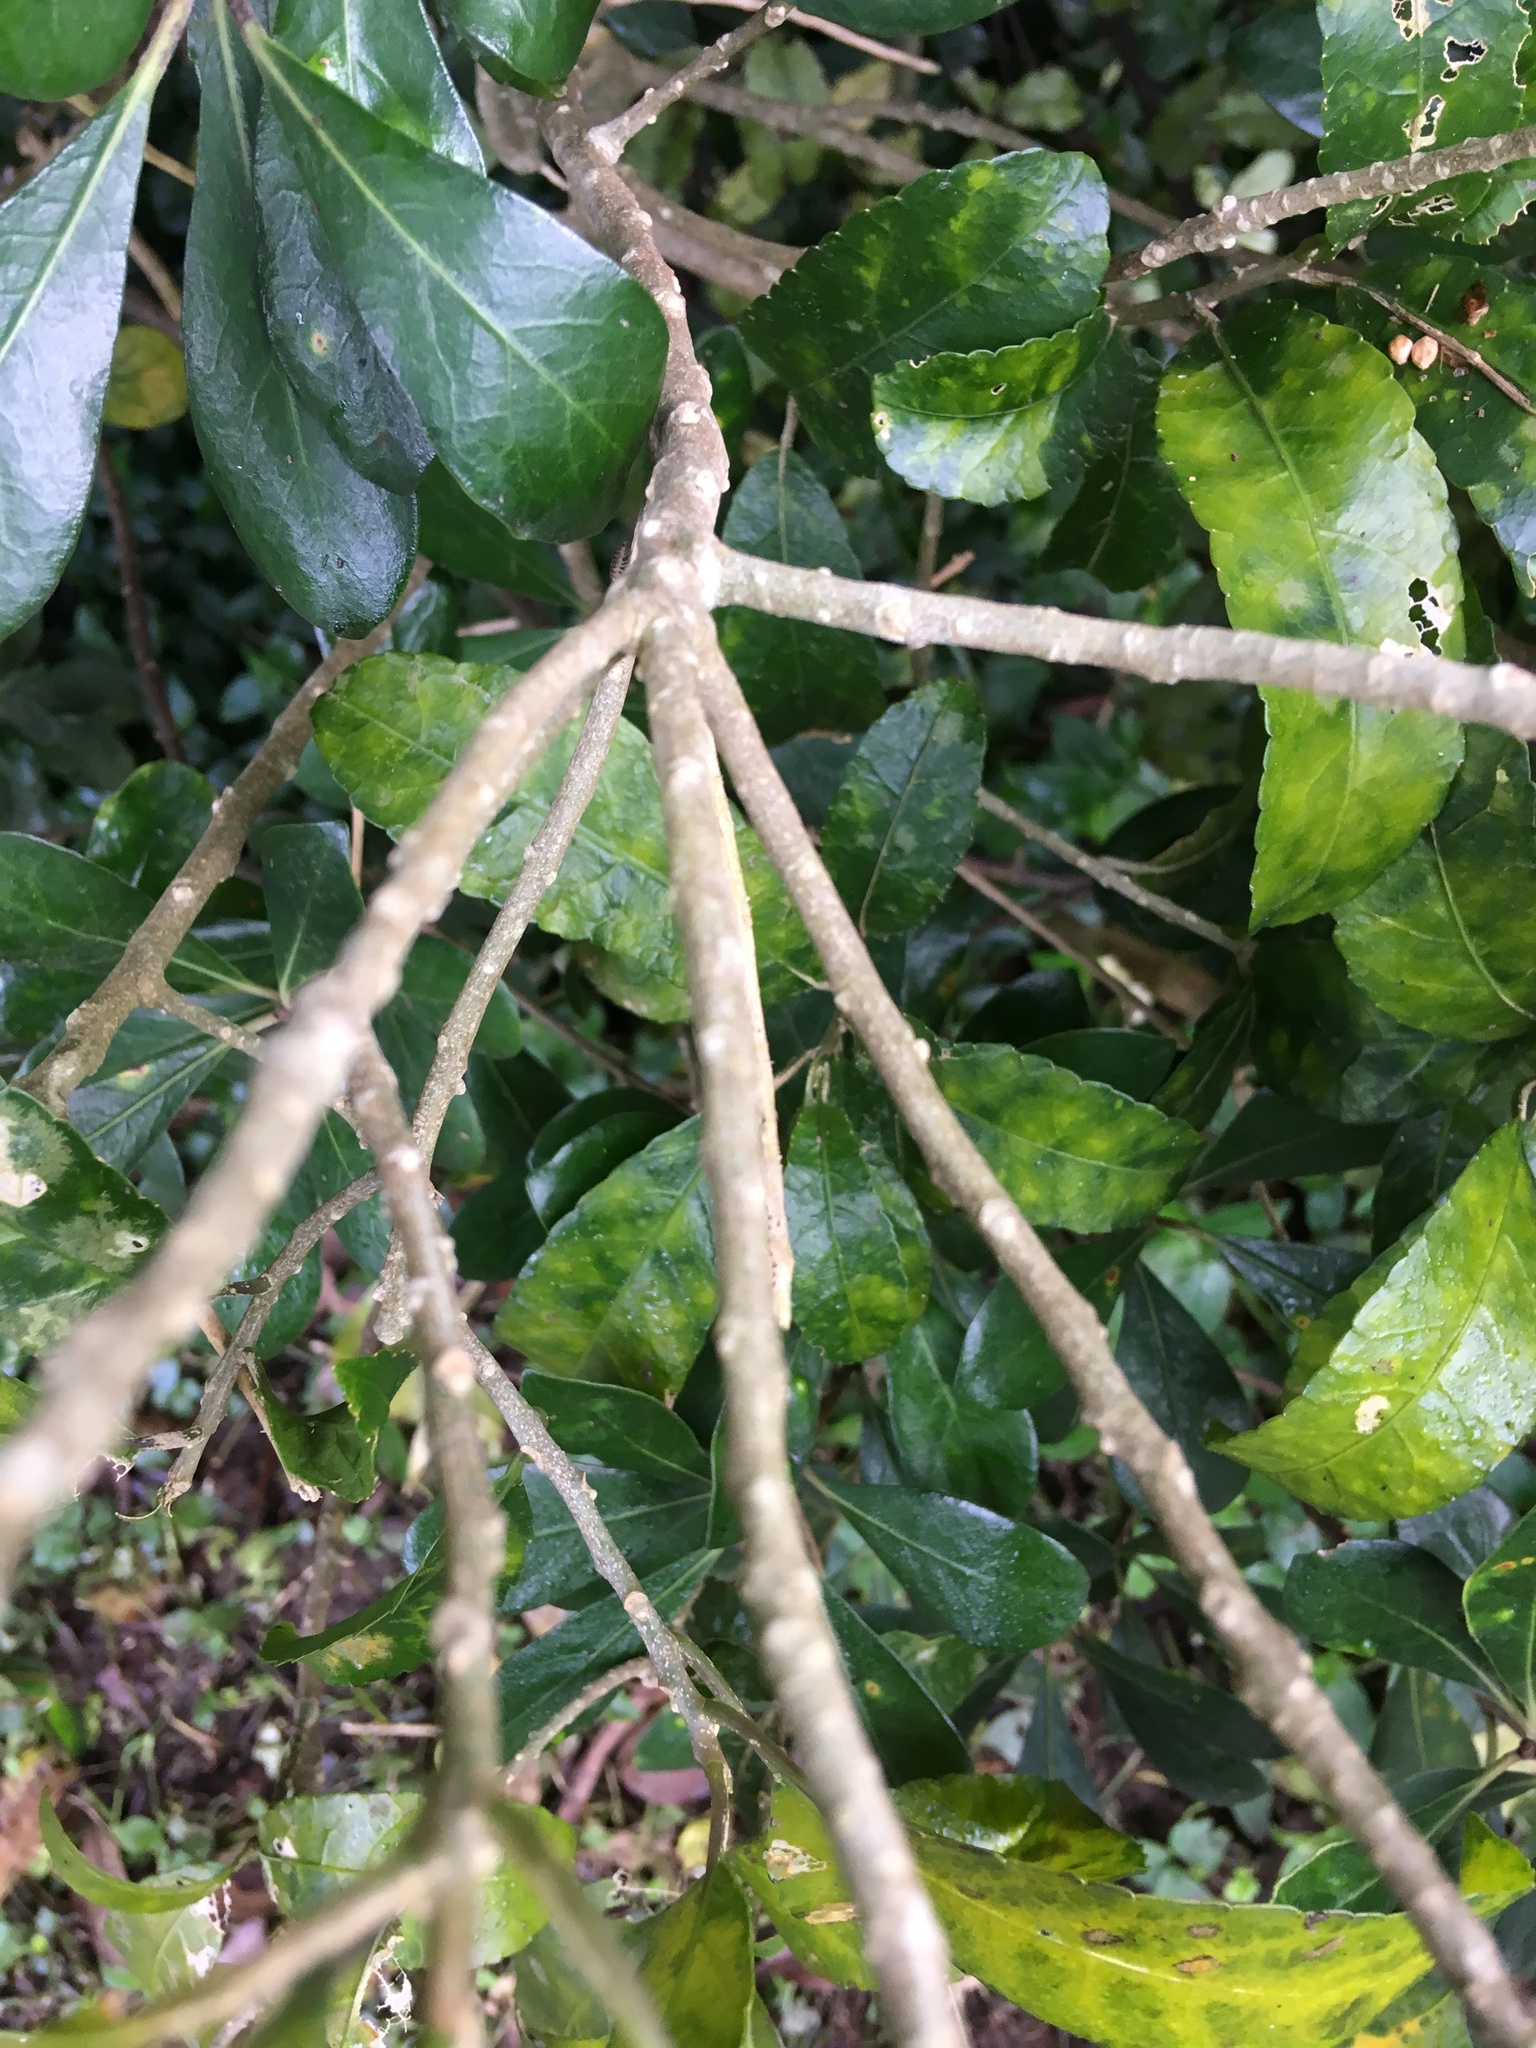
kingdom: Plantae
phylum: Tracheophyta
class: Magnoliopsida
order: Malpighiales
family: Violaceae
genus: Melicytus
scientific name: Melicytus ramiflorus
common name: Mahoe
